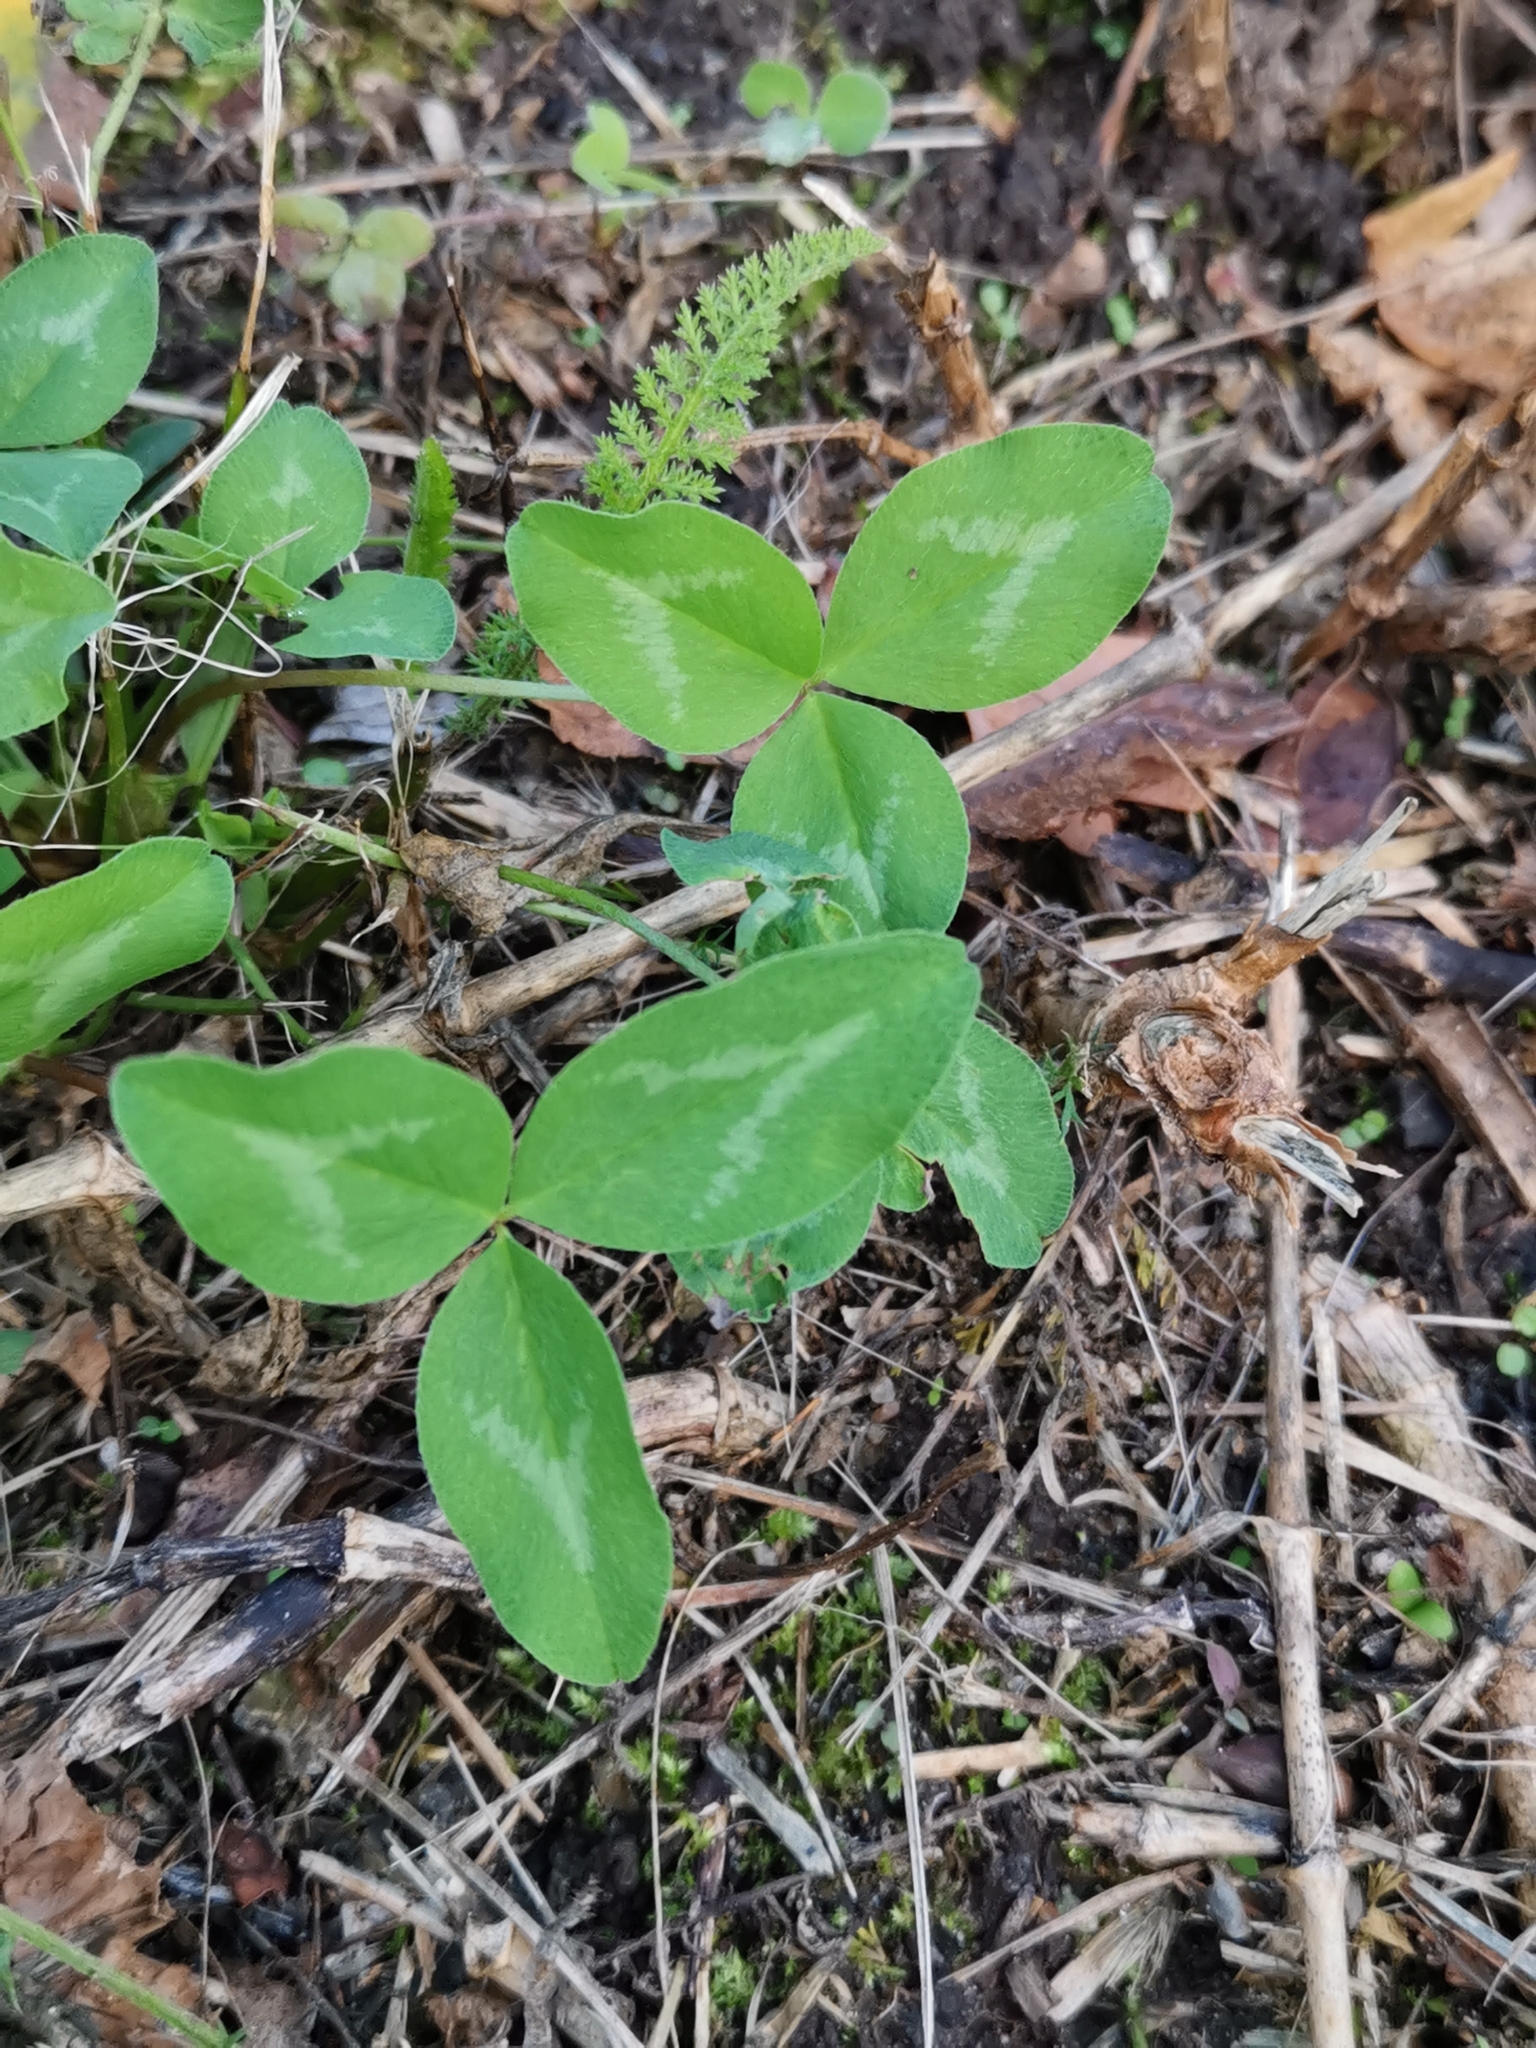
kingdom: Plantae
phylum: Tracheophyta
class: Magnoliopsida
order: Fabales
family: Fabaceae
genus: Trifolium
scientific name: Trifolium pratense
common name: Red clover
